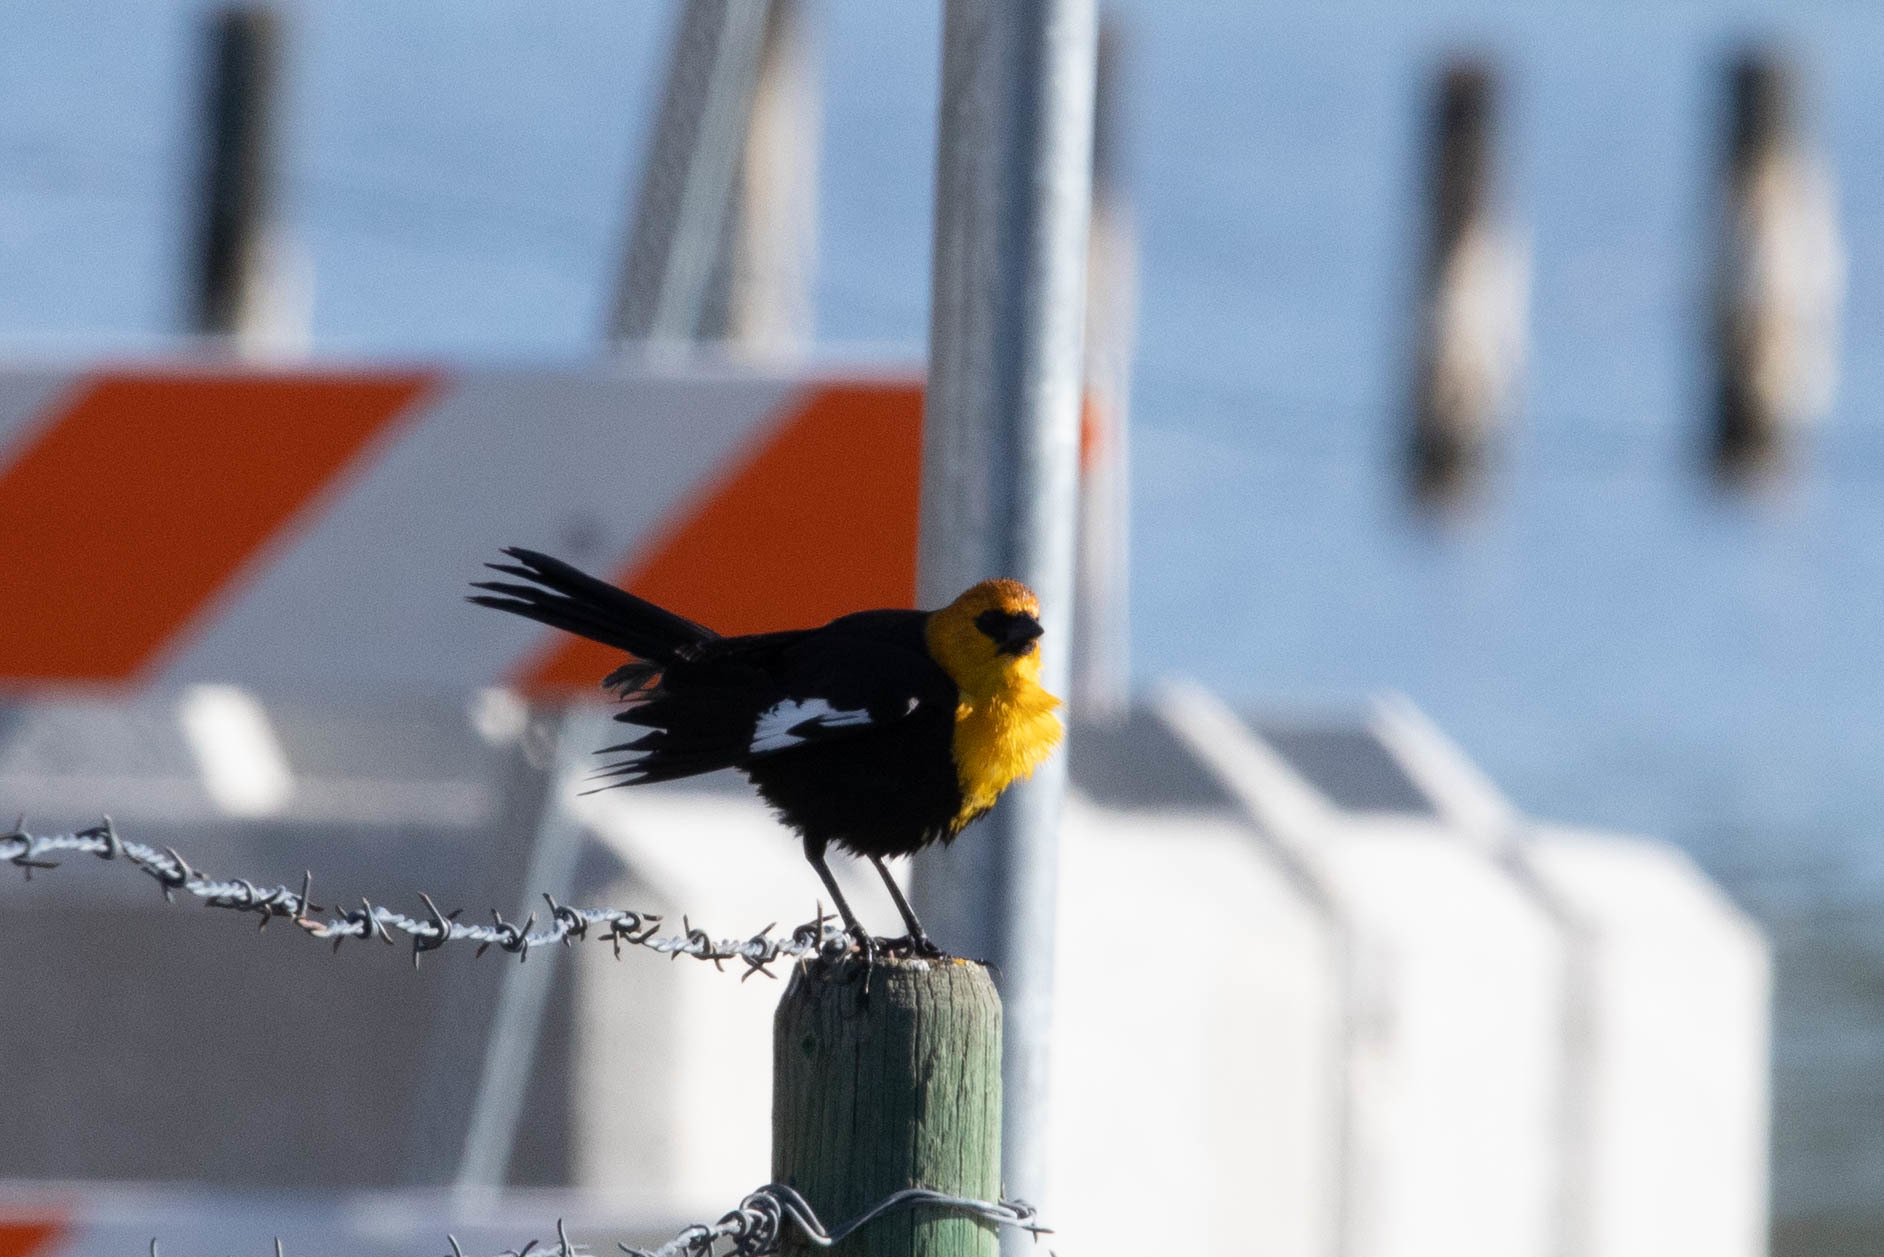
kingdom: Animalia
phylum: Chordata
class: Aves
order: Passeriformes
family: Icteridae
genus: Xanthocephalus
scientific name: Xanthocephalus xanthocephalus
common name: Yellow-headed blackbird
